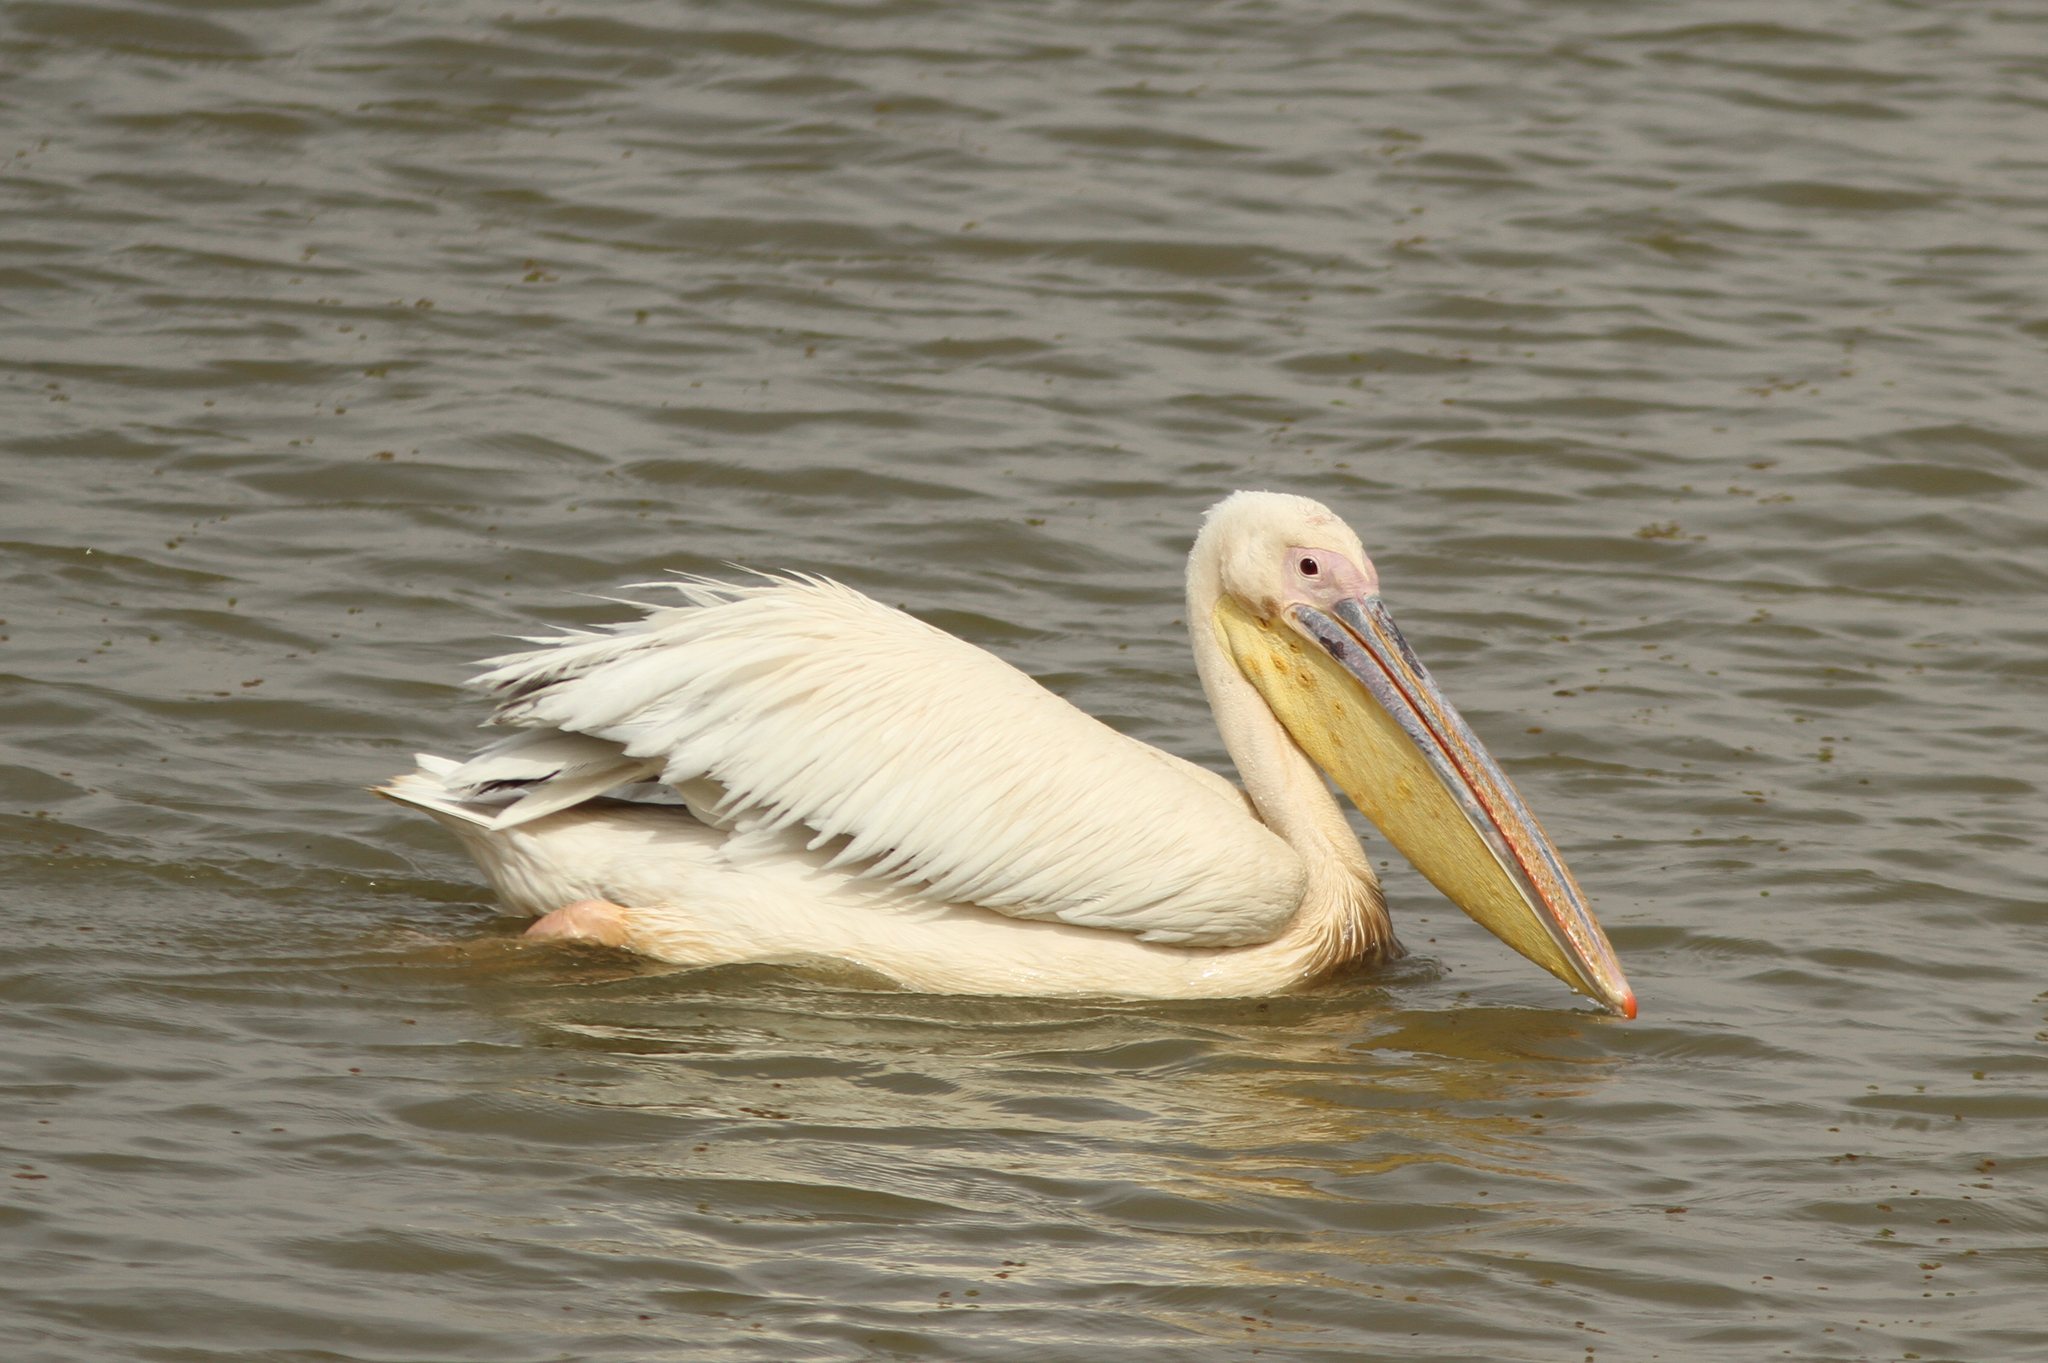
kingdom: Animalia
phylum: Chordata
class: Aves
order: Pelecaniformes
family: Pelecanidae
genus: Pelecanus
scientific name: Pelecanus onocrotalus
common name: Great white pelican
